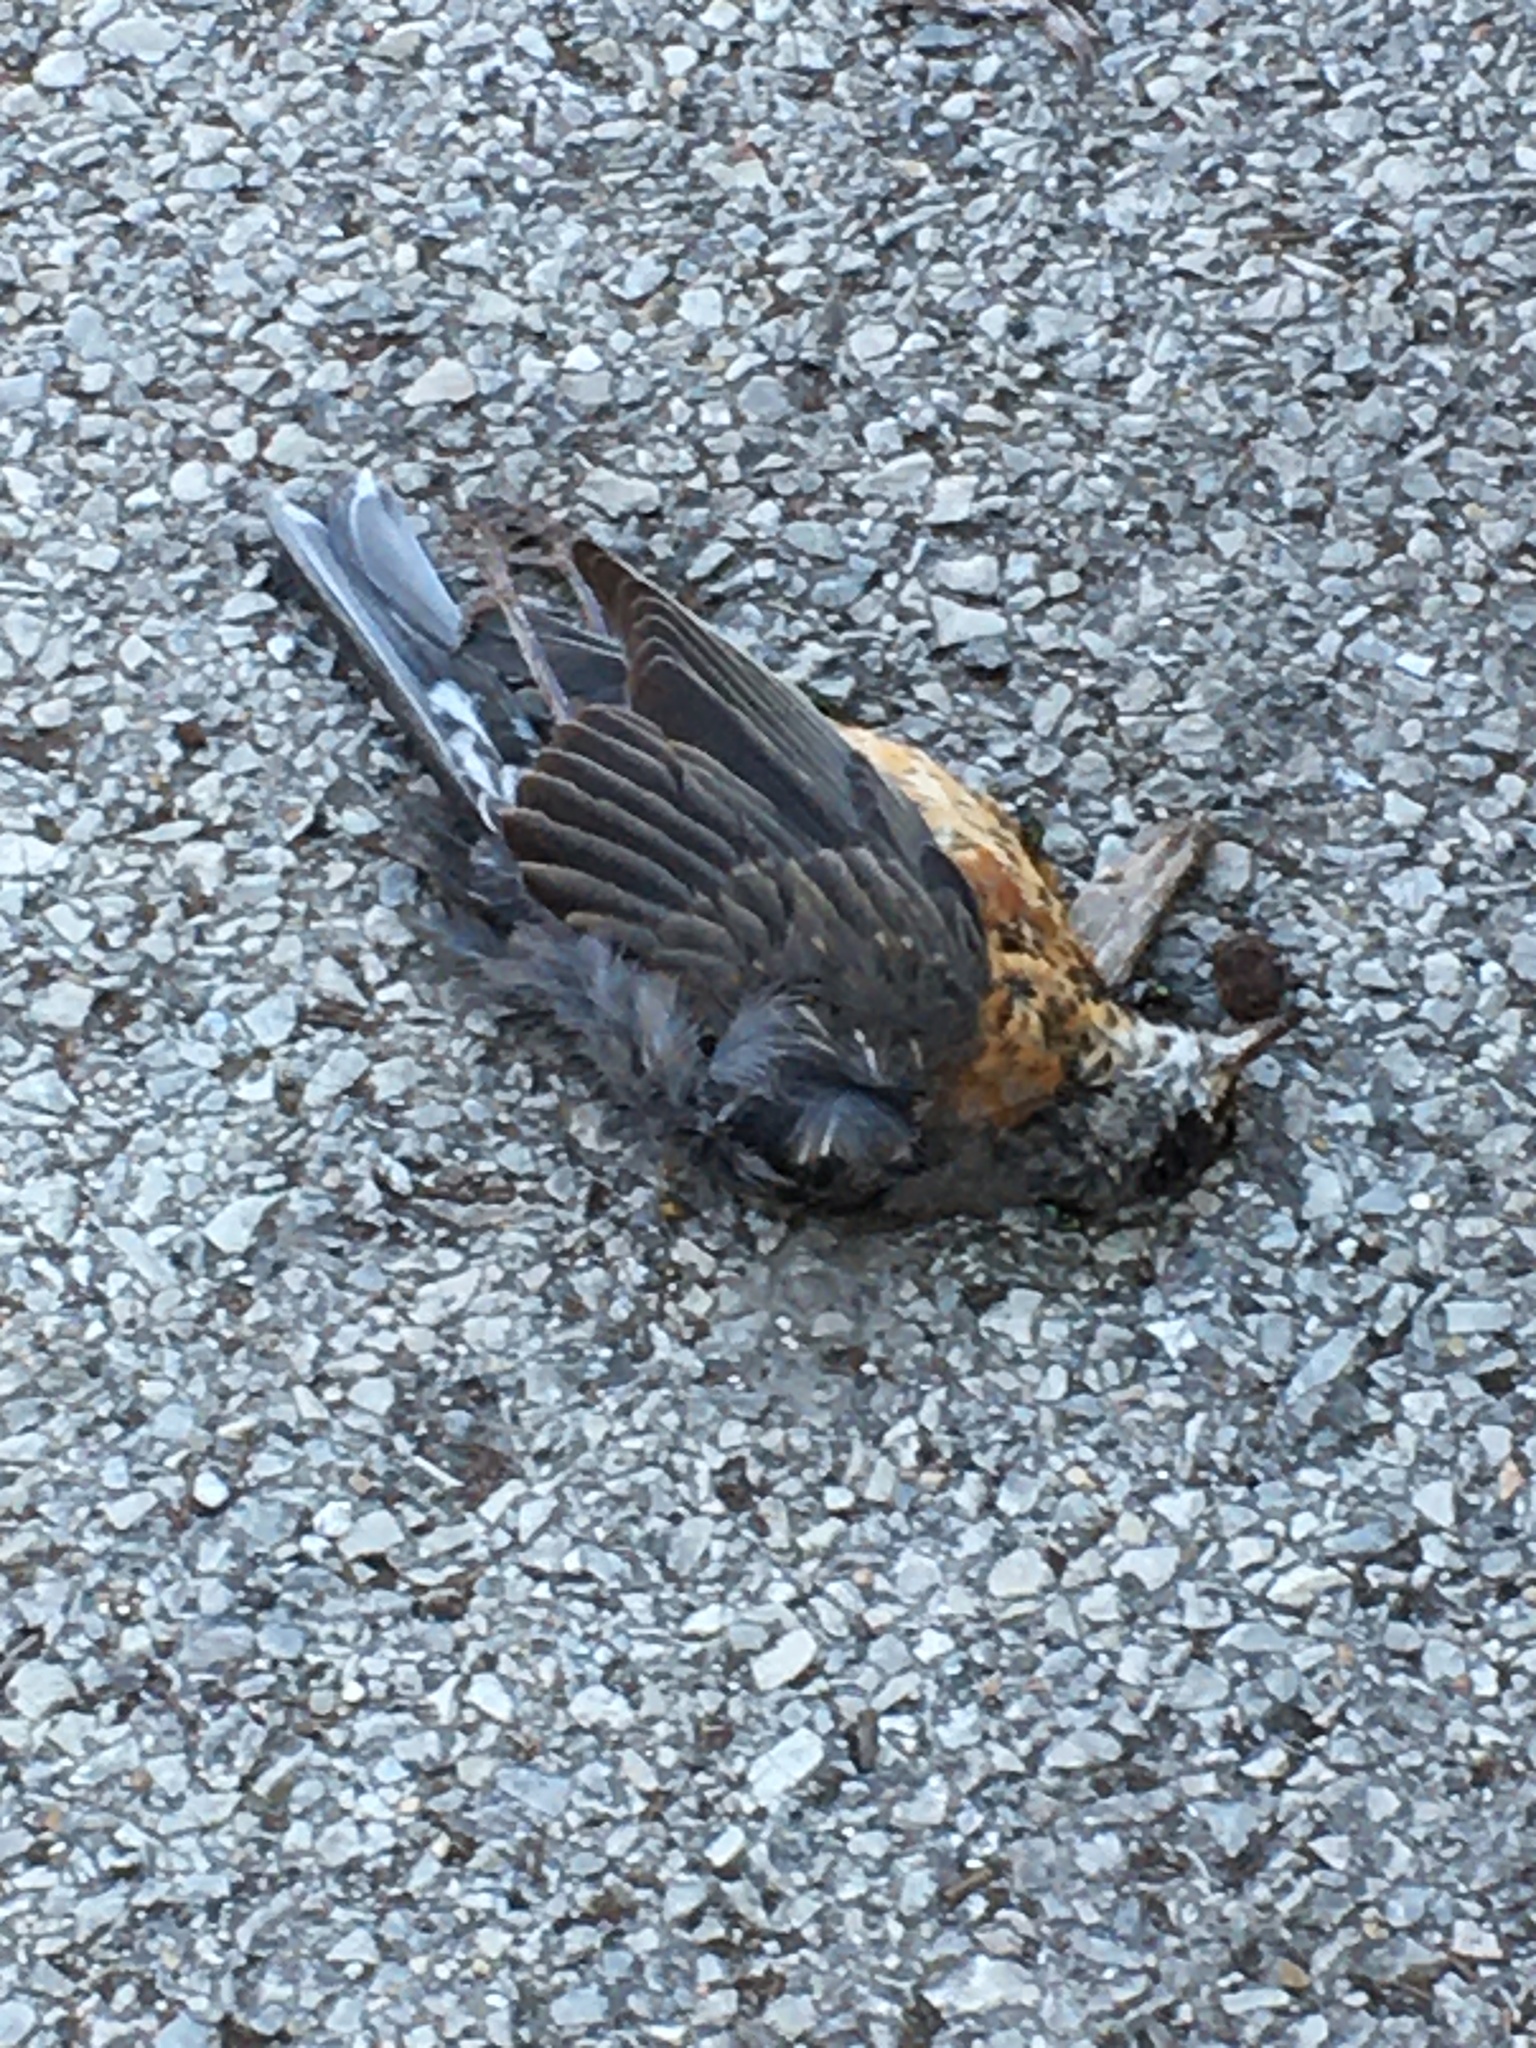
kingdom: Animalia
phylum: Chordata
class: Aves
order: Passeriformes
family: Turdidae
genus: Turdus
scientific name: Turdus migratorius
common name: American robin
